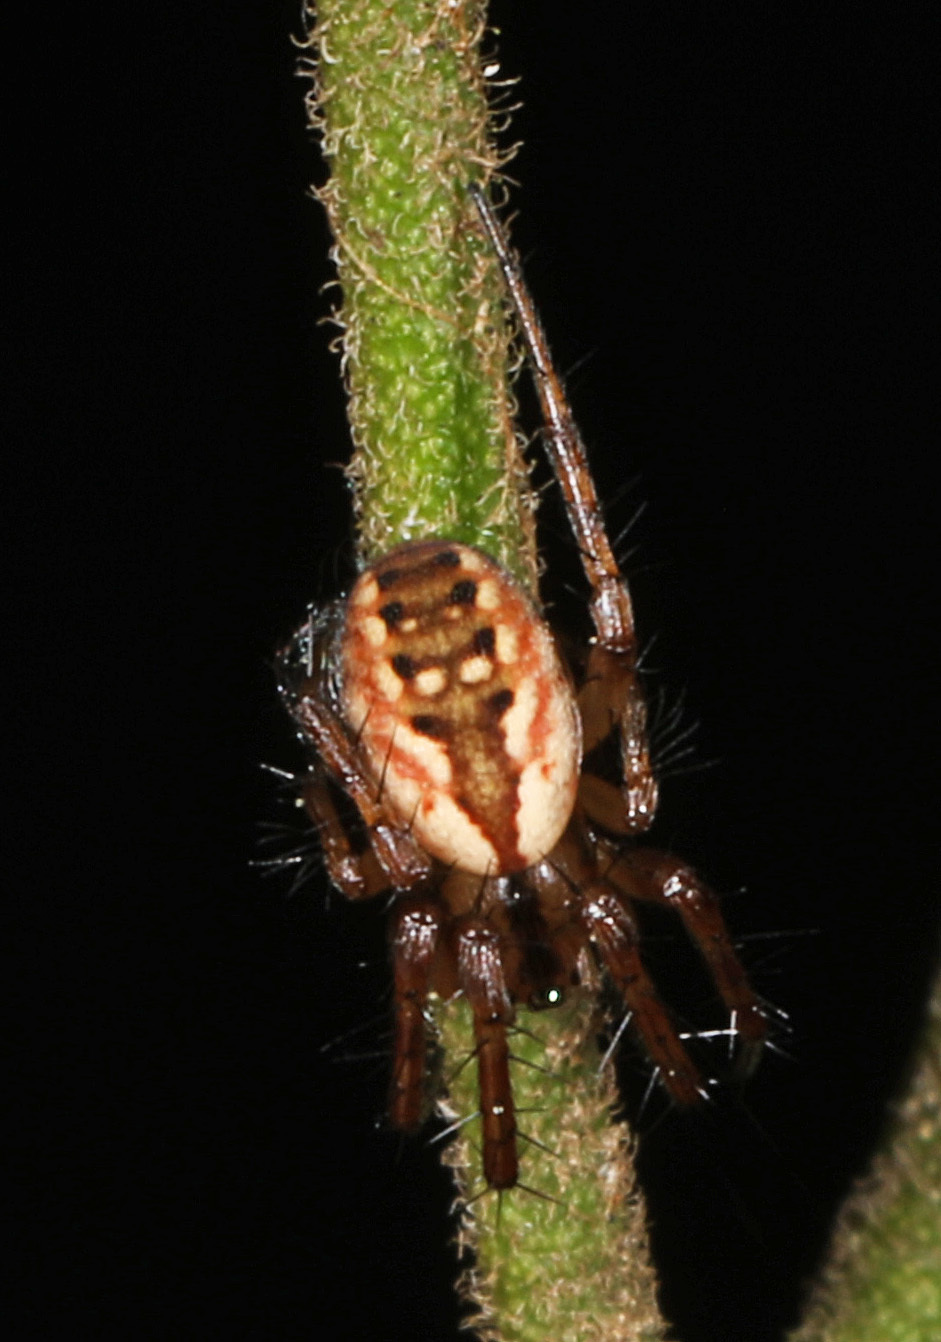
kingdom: Animalia
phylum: Arthropoda
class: Arachnida
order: Araneae
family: Araneidae
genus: Mangora
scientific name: Mangora placida
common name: Tuft-legged orbweaver
